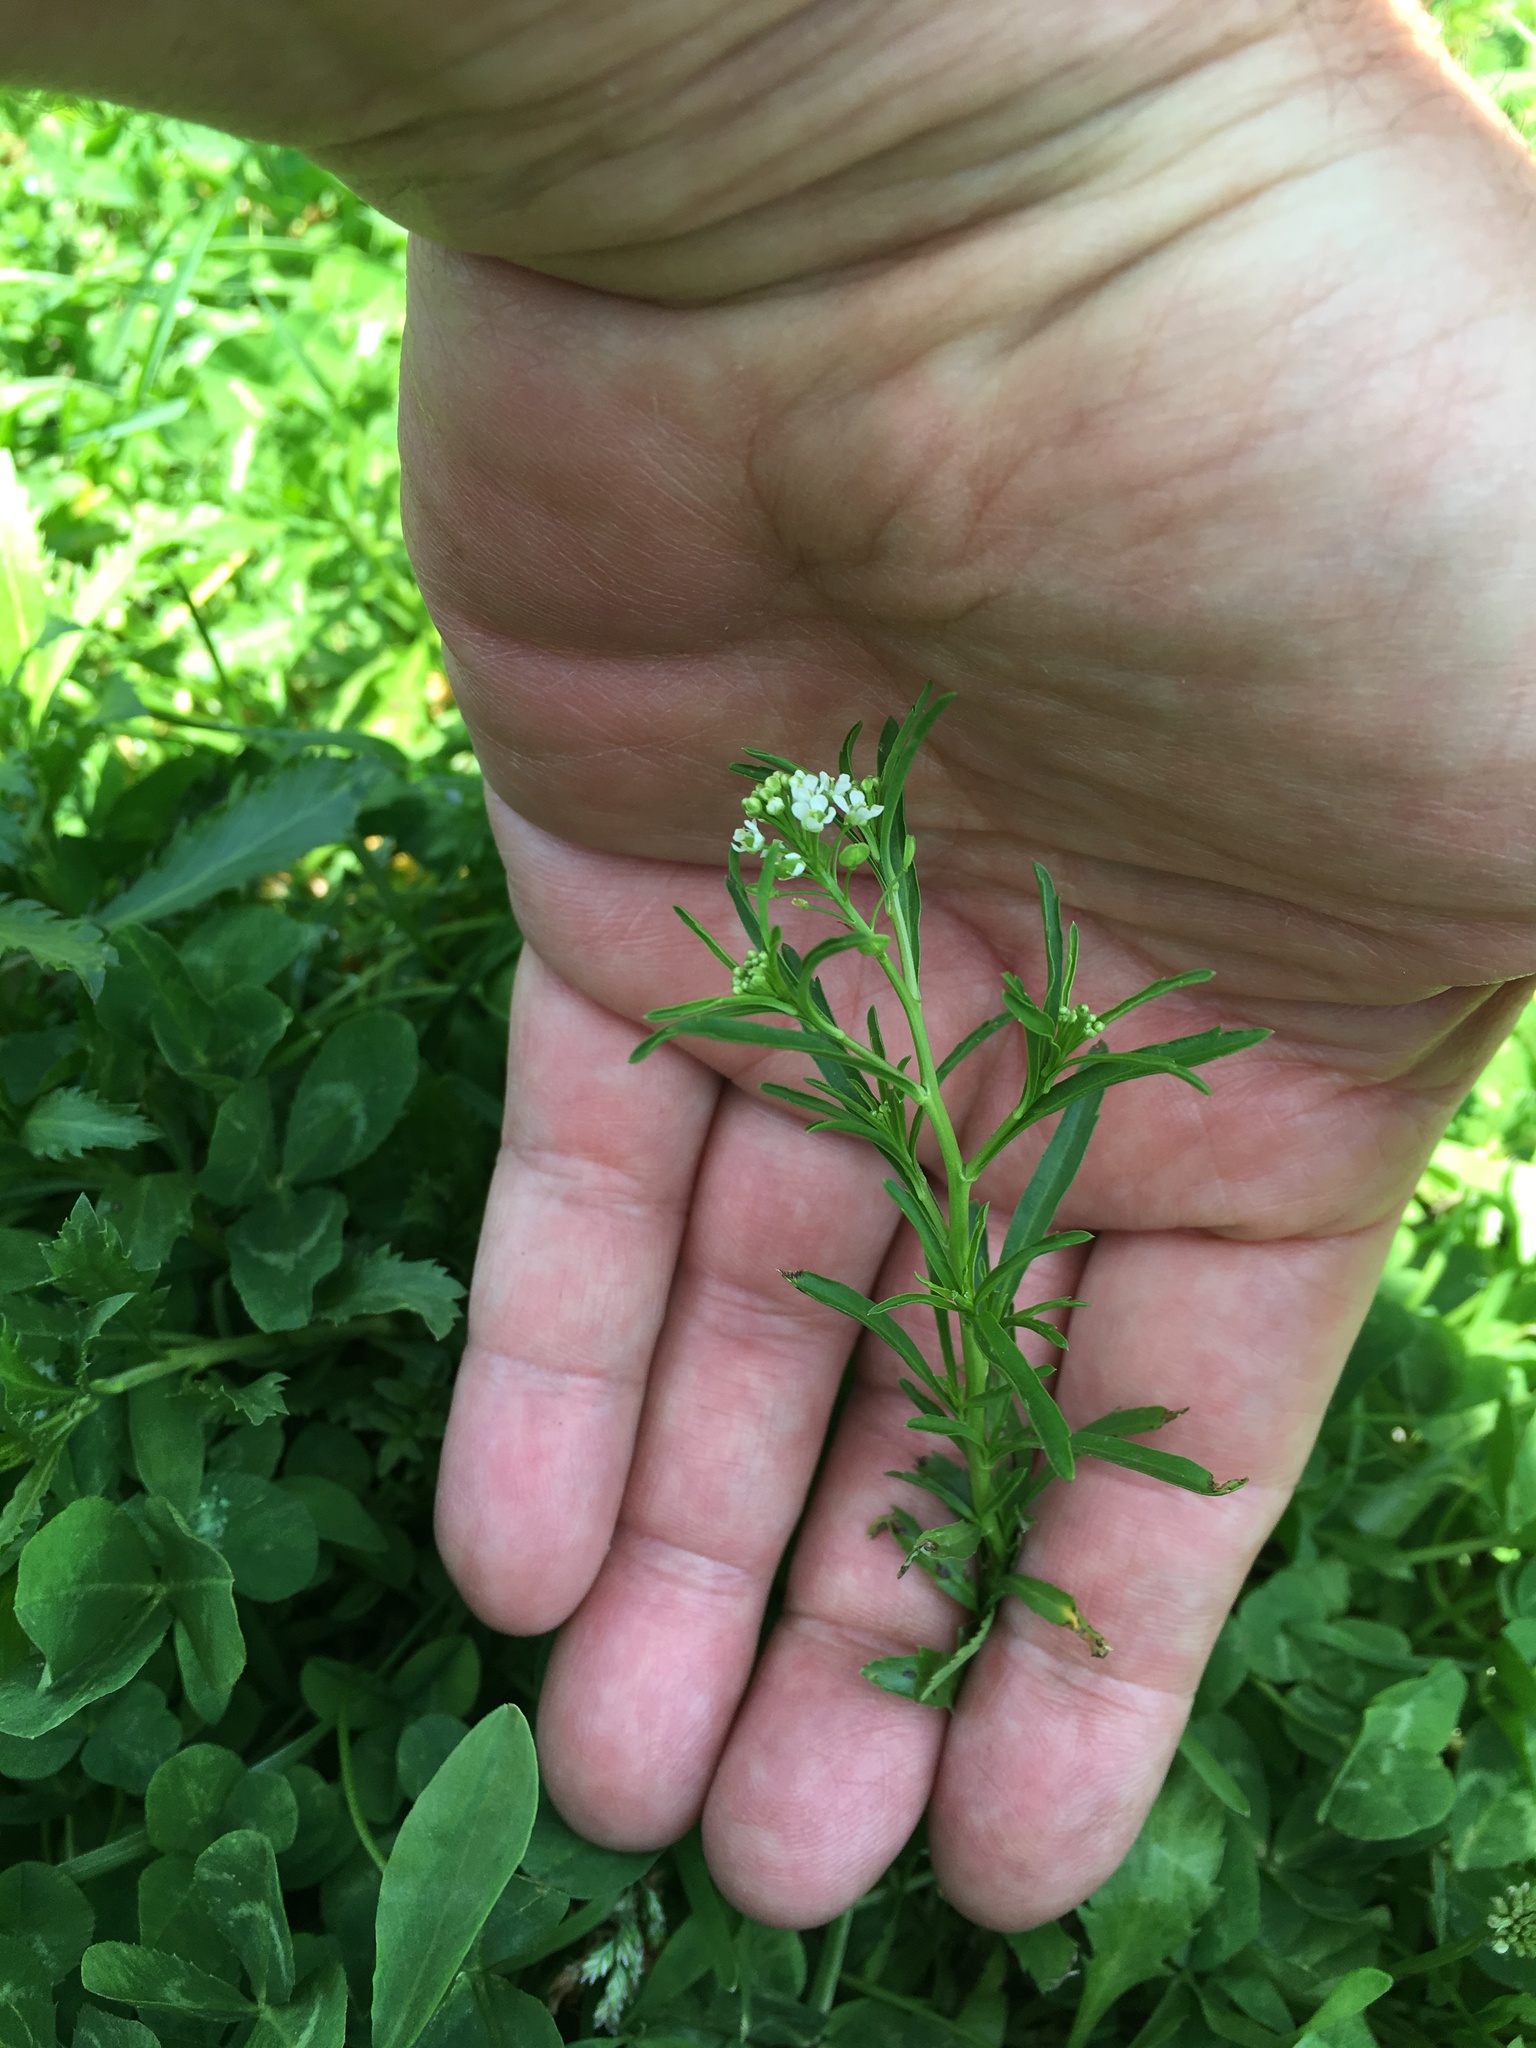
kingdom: Plantae
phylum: Tracheophyta
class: Magnoliopsida
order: Brassicales
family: Brassicaceae
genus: Lepidium
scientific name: Lepidium virginicum
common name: Least pepperwort
